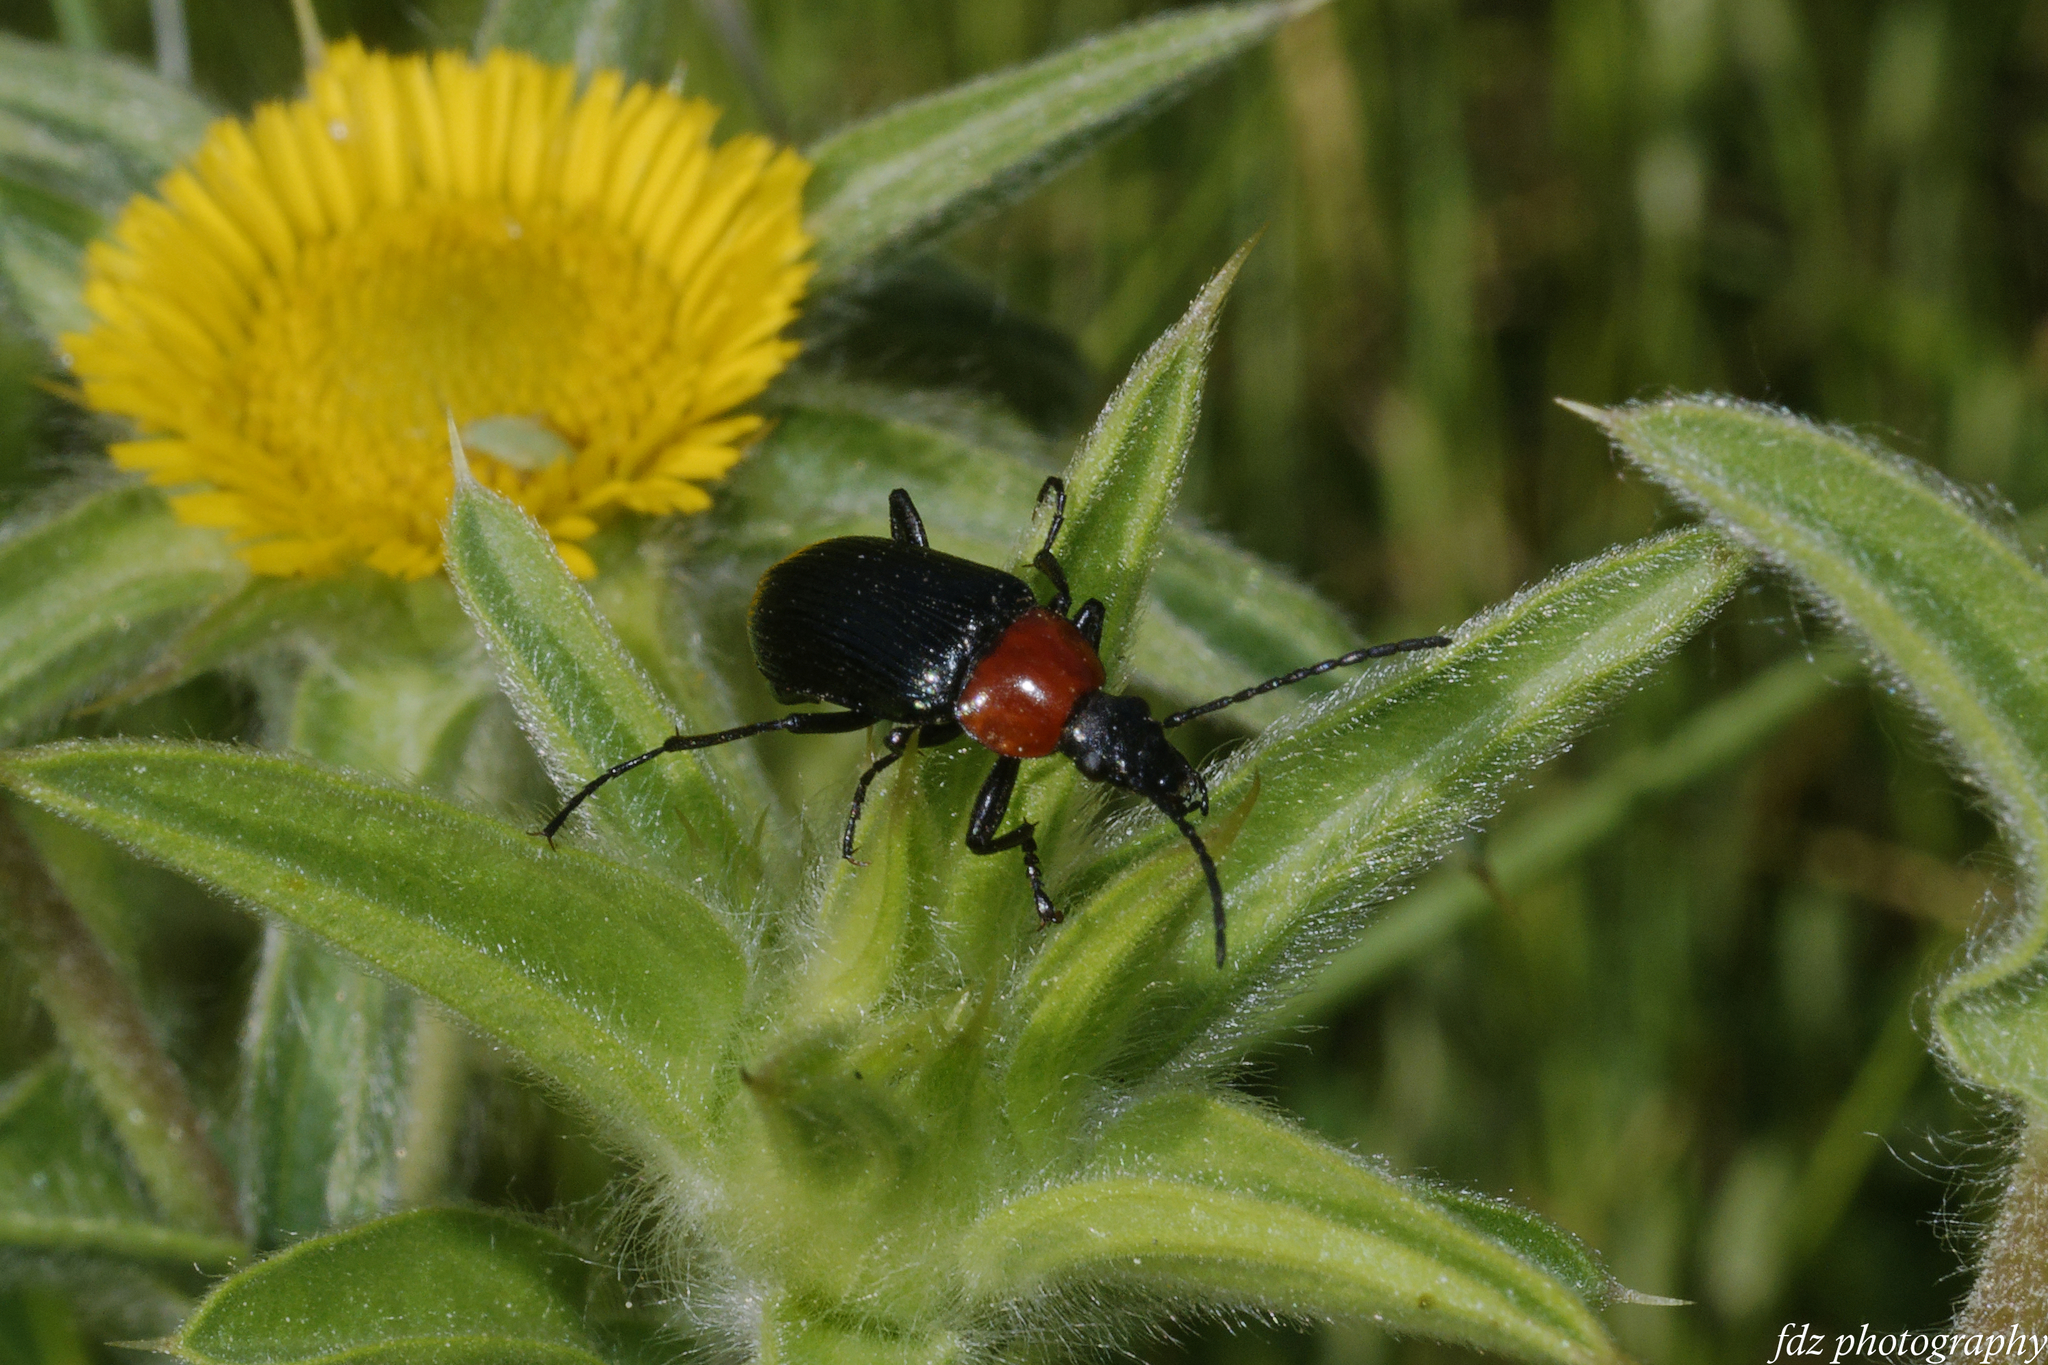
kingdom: Animalia
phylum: Arthropoda
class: Insecta
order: Coleoptera
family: Tenebrionidae
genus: Heliotaurus
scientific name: Heliotaurus ruficollis
